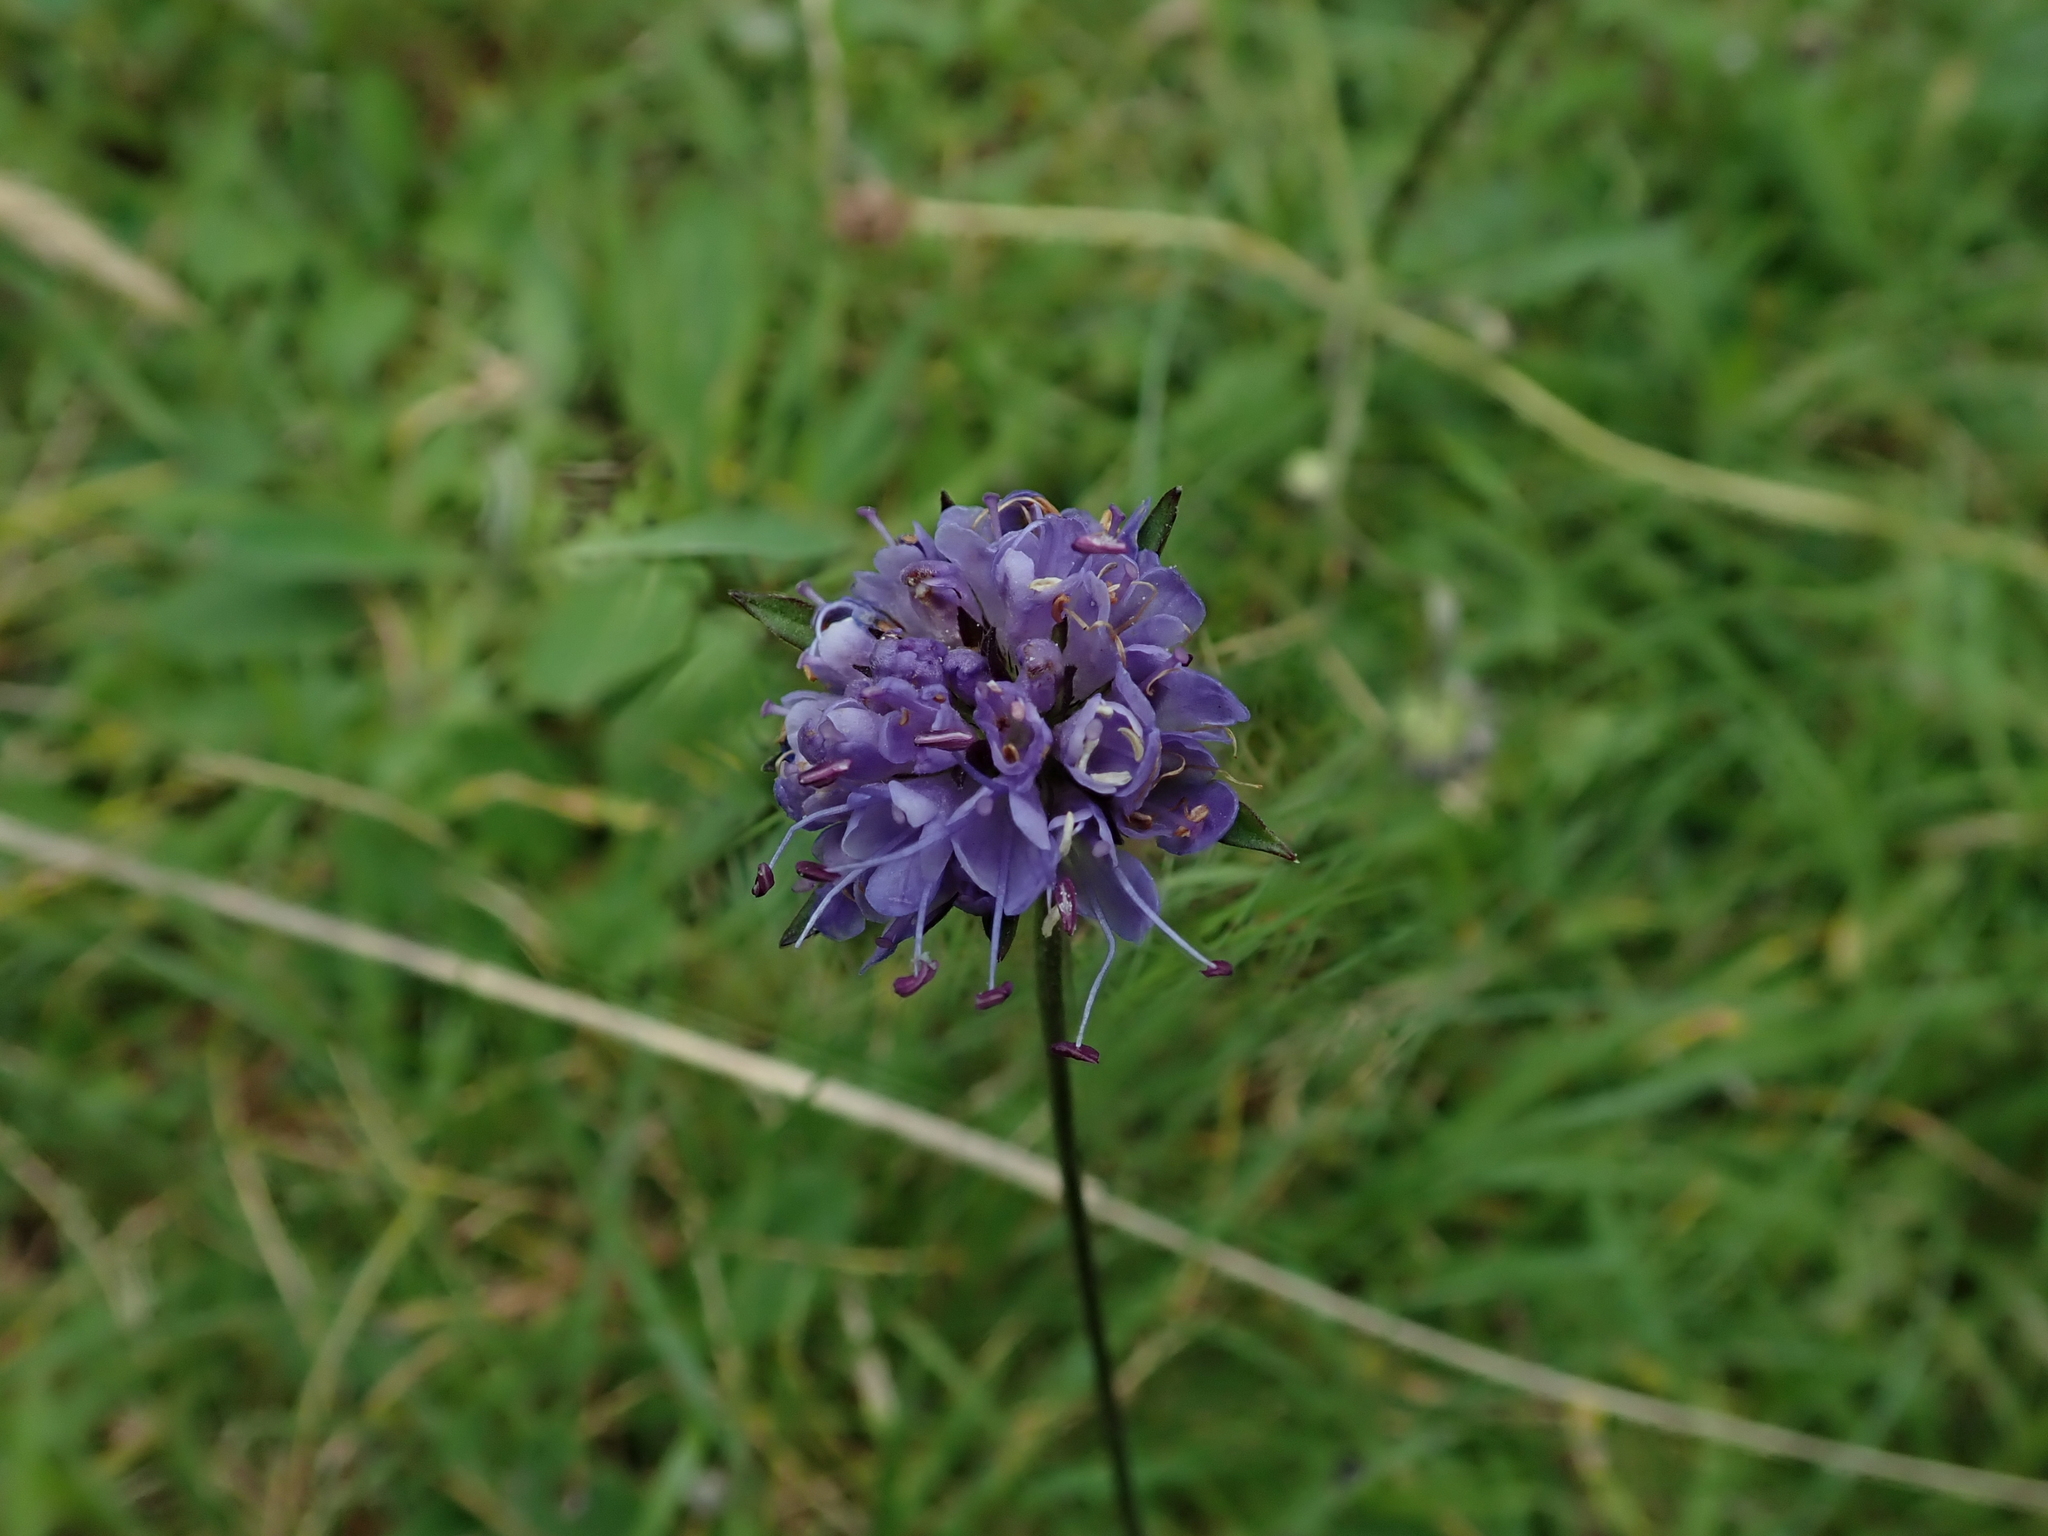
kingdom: Plantae
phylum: Tracheophyta
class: Magnoliopsida
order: Dipsacales
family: Caprifoliaceae
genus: Succisa
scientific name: Succisa pratensis
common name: Devil's-bit
